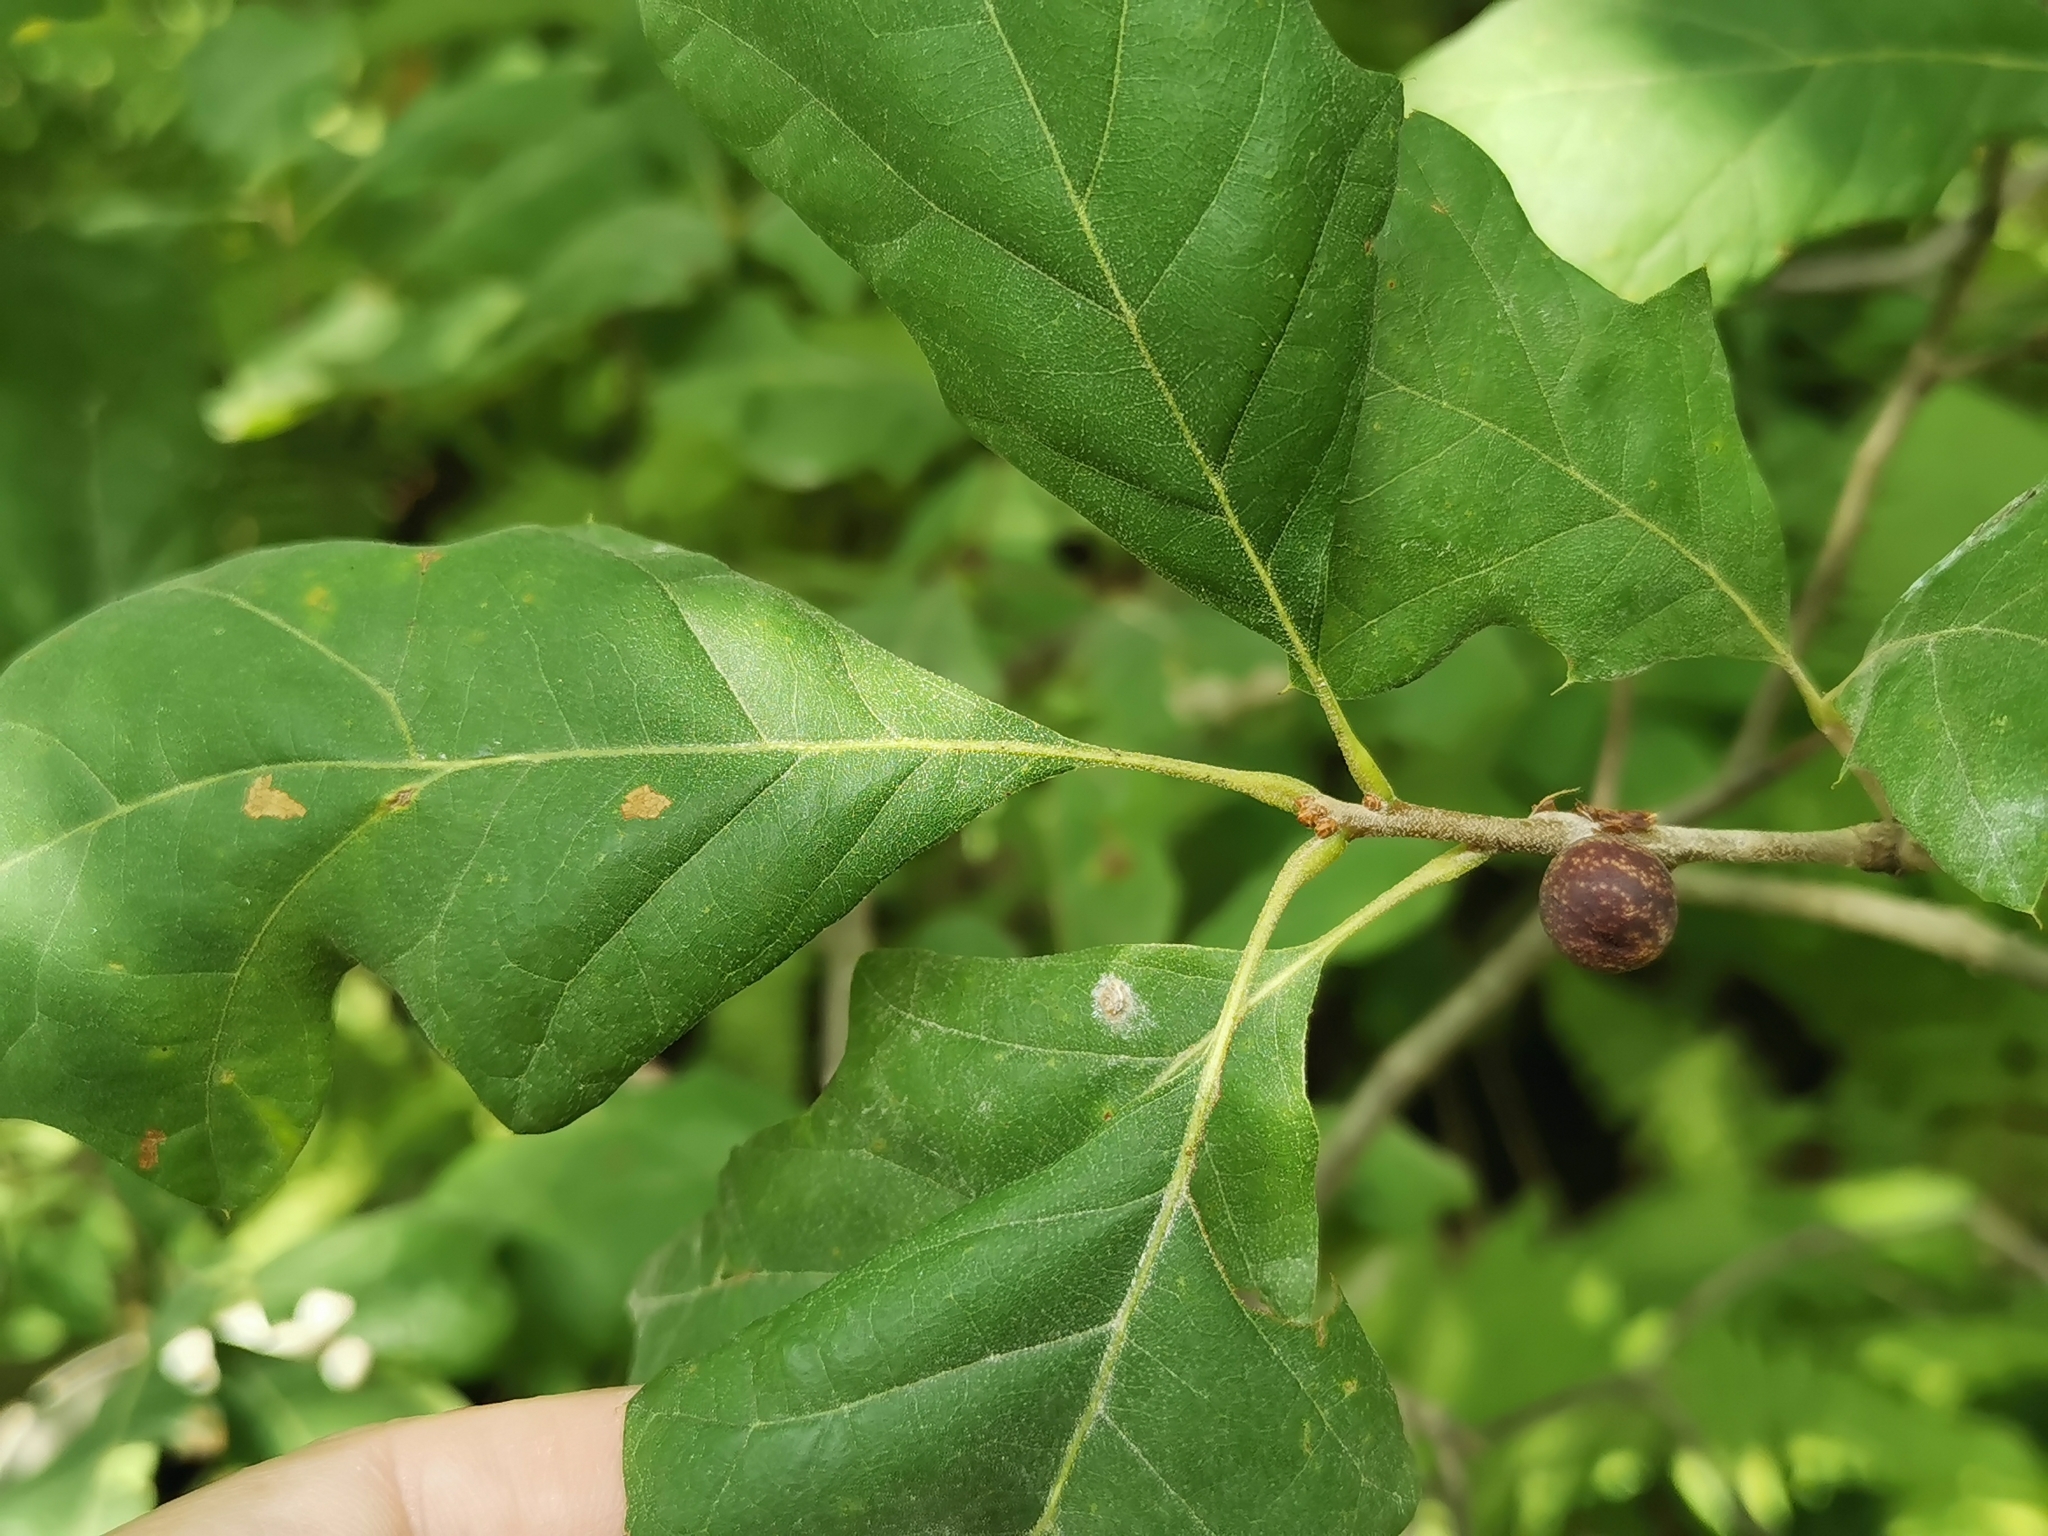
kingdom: Animalia
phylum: Arthropoda
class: Insecta
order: Hymenoptera
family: Cynipidae
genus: Kokkocynips
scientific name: Kokkocynips imbricariae
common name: Banded bullet gall wasp
